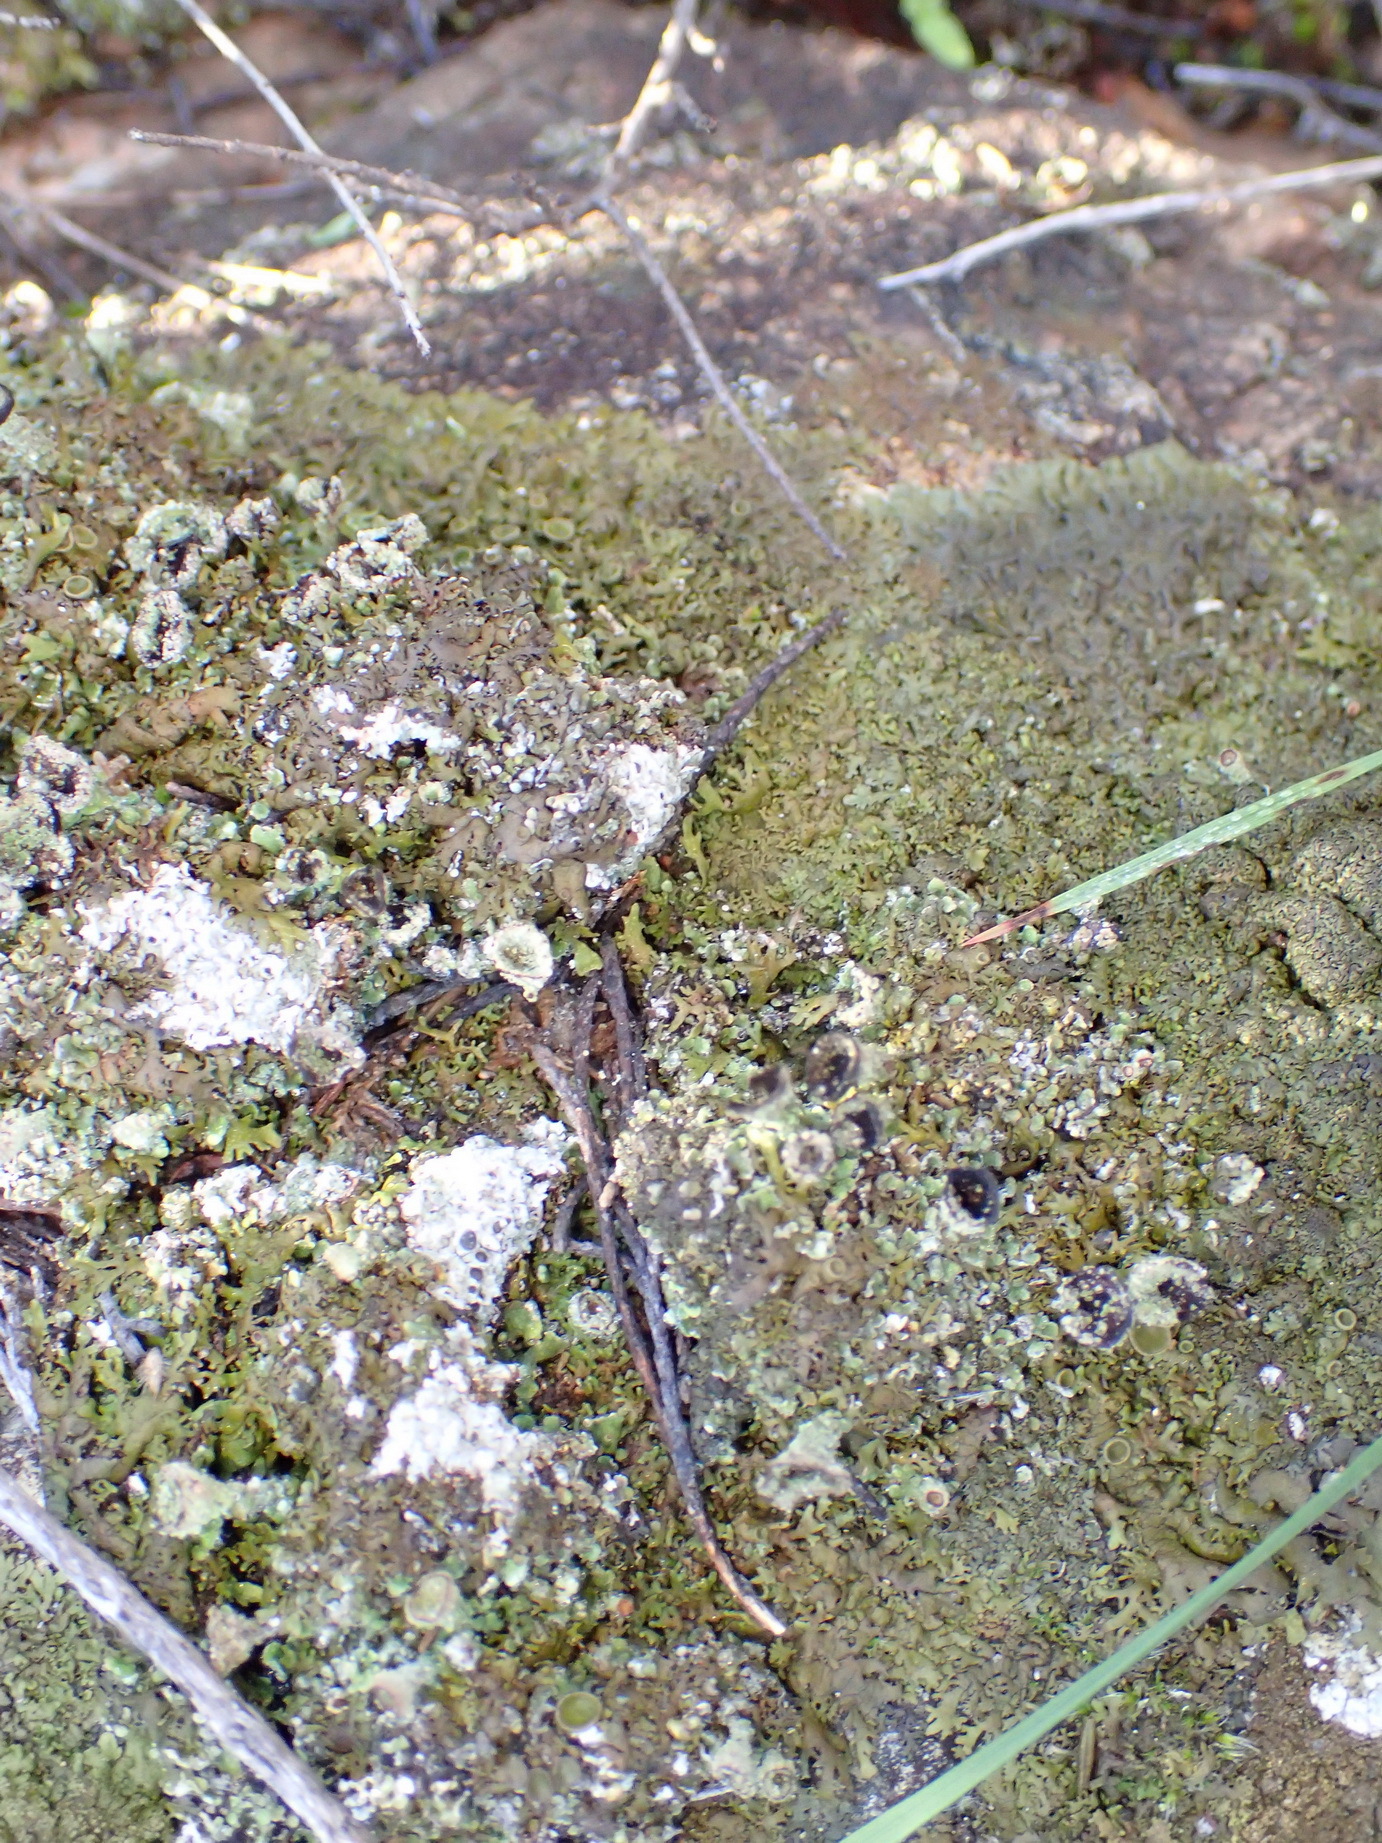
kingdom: Fungi
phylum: Ascomycota
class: Lecanoromycetes
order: Lecanorales
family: Cladoniaceae
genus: Cladonia
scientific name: Cladonia pyxidata
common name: Pebbled pixie cup
